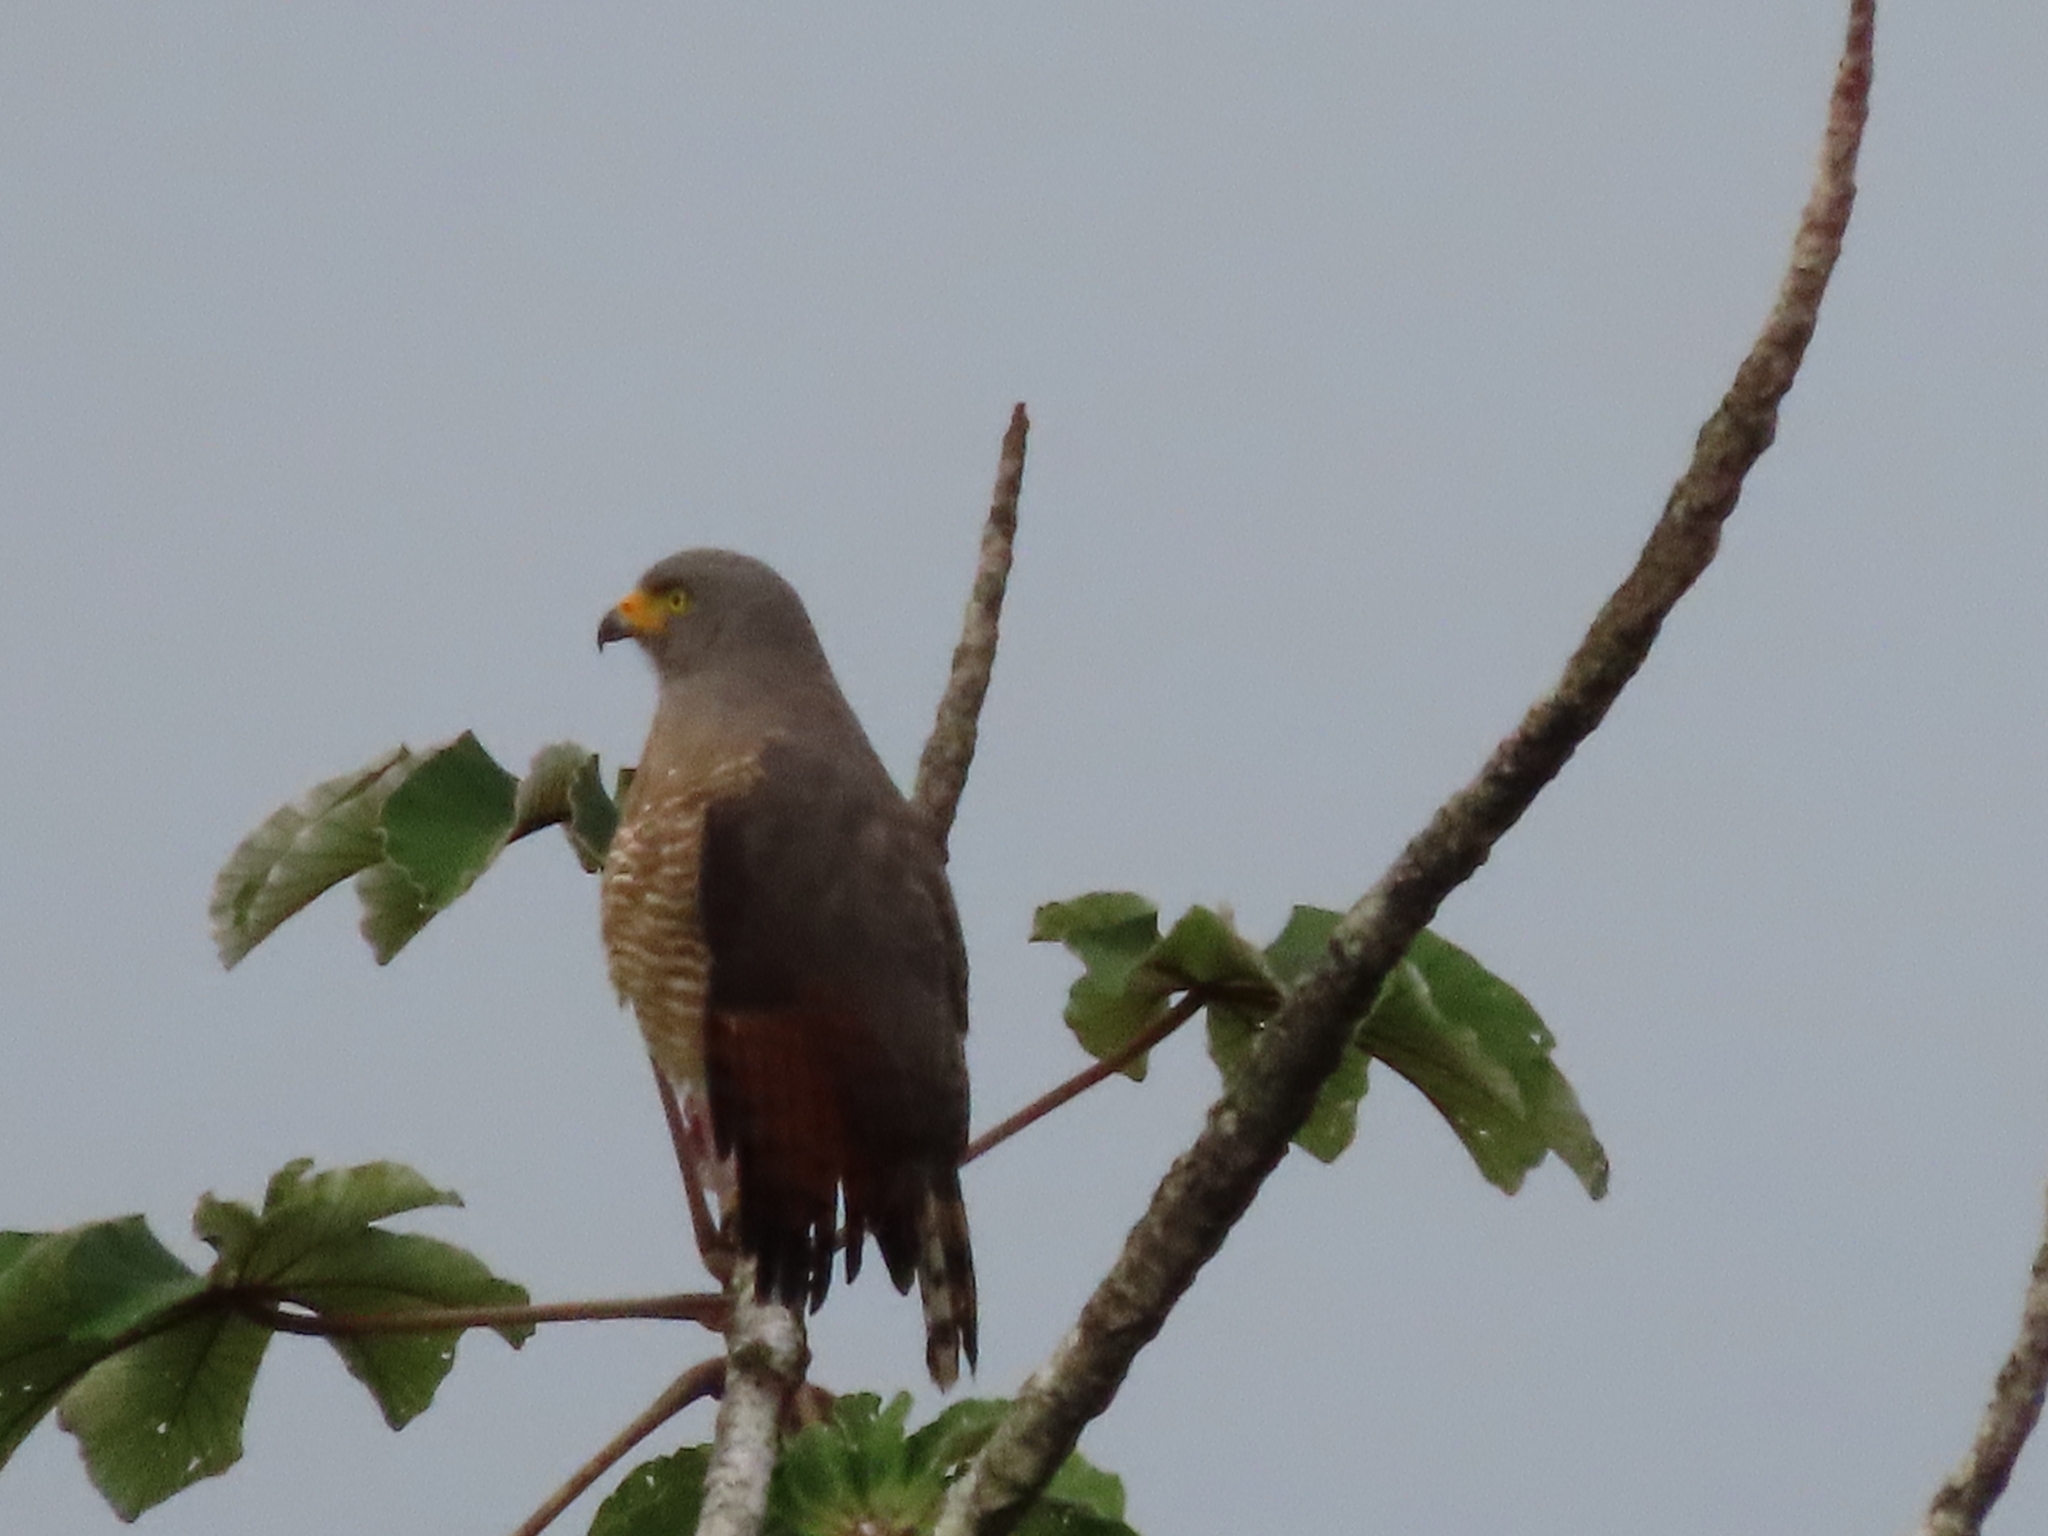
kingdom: Animalia
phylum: Chordata
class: Aves
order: Accipitriformes
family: Accipitridae
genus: Rupornis
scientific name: Rupornis magnirostris
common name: Roadside hawk
